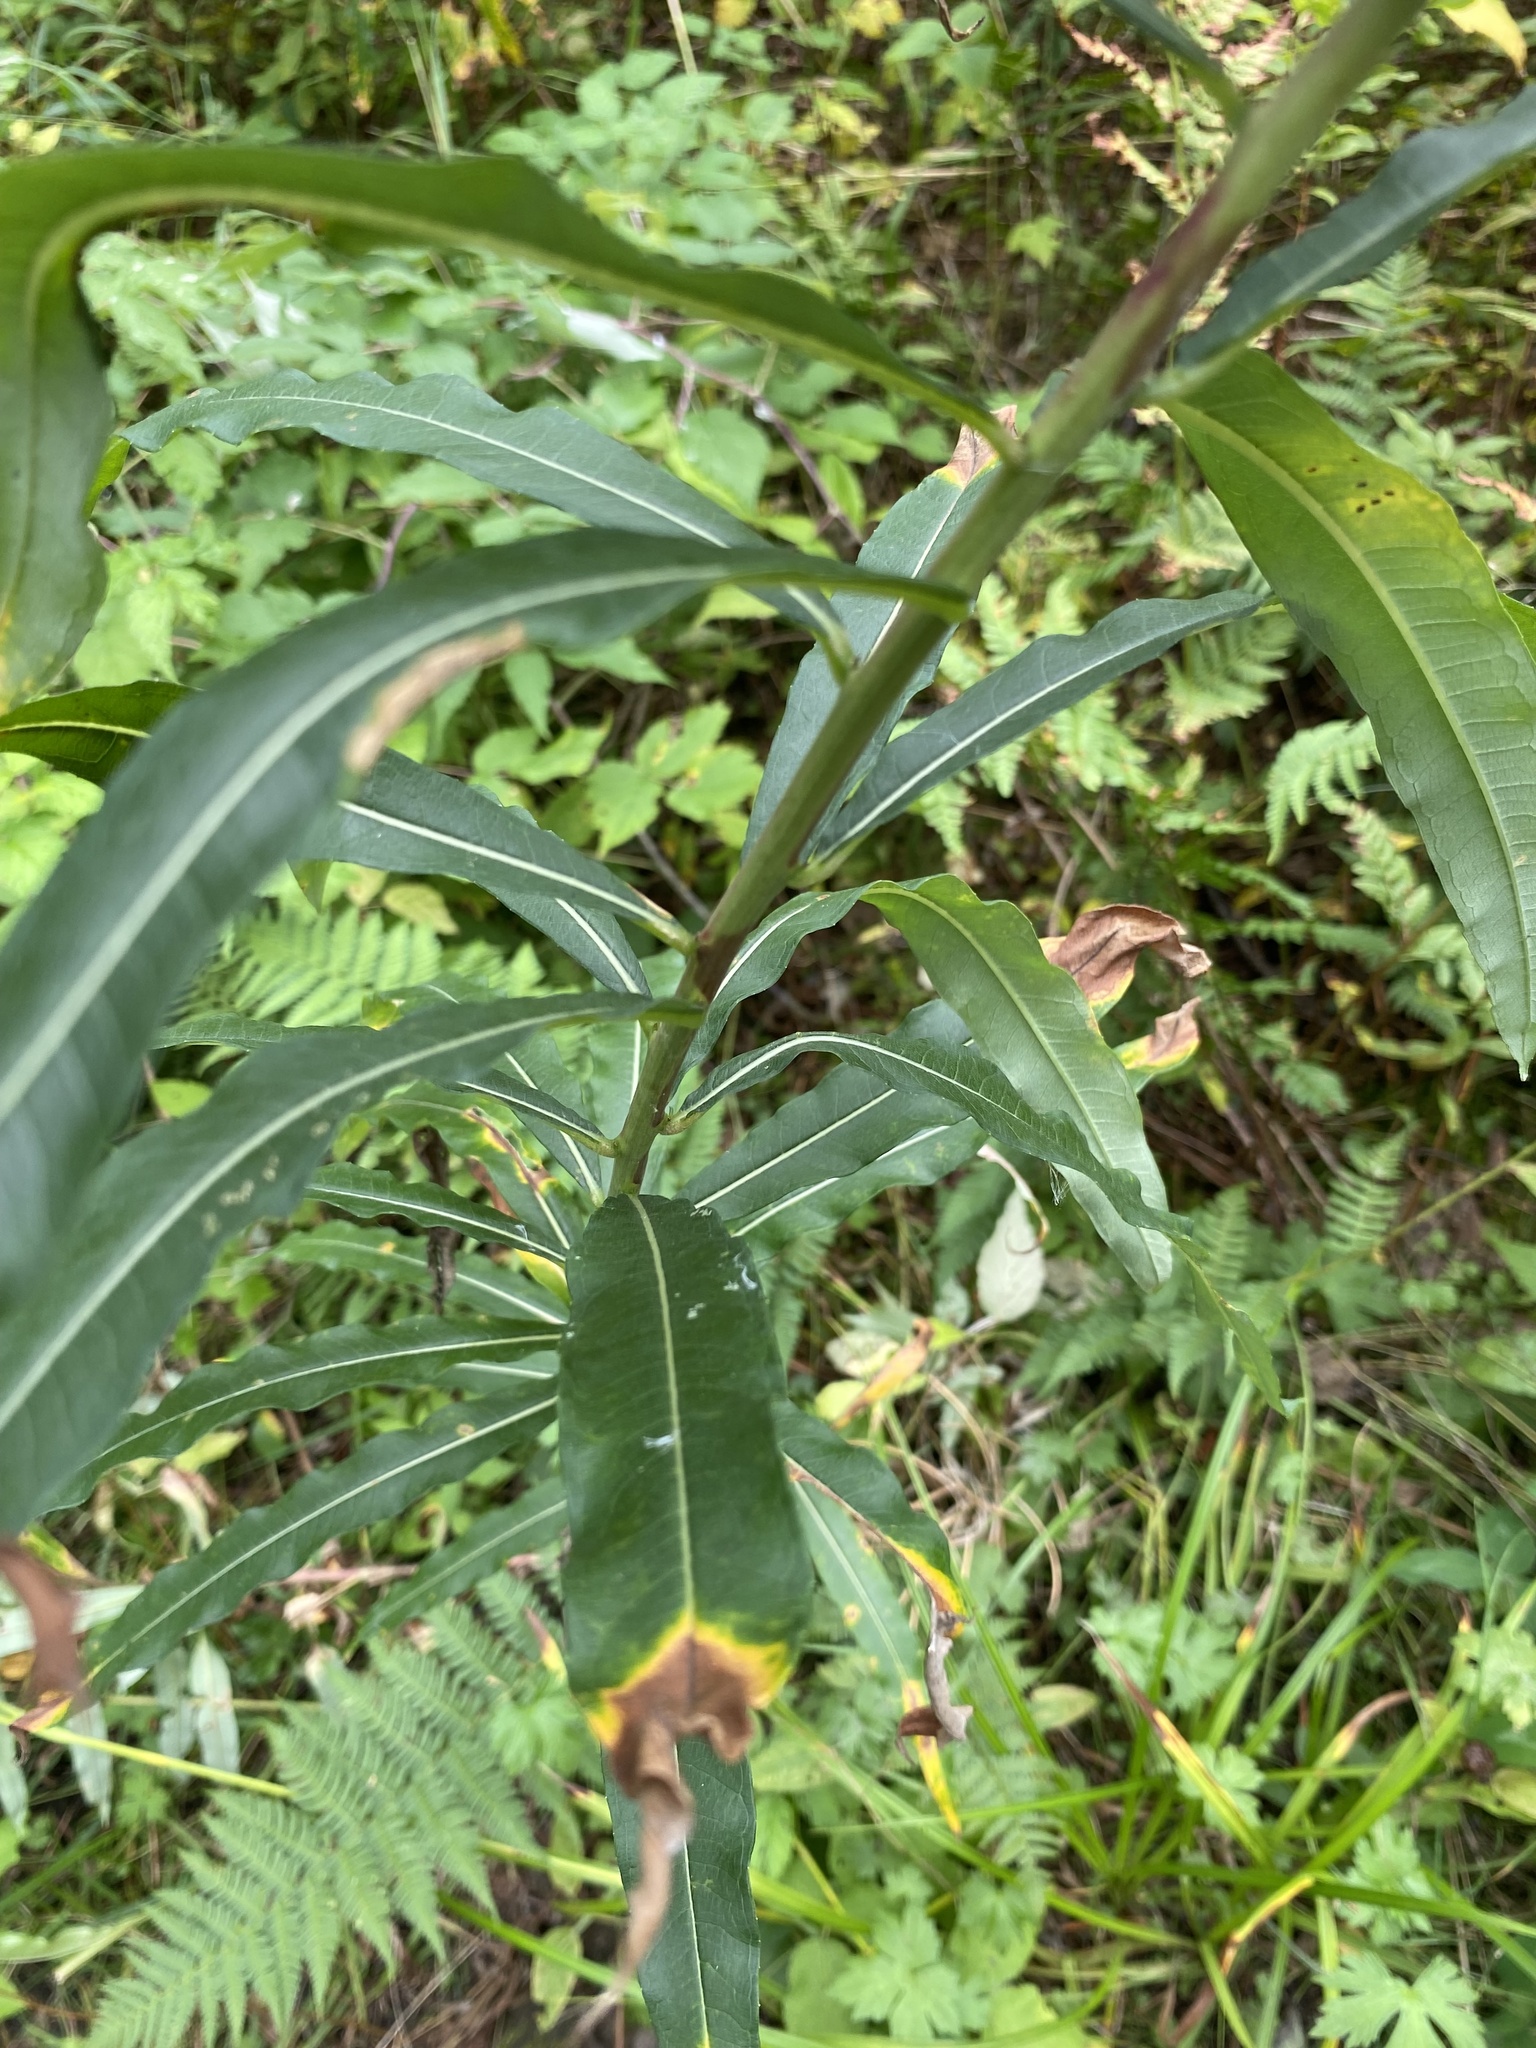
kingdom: Plantae
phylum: Tracheophyta
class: Magnoliopsida
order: Myrtales
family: Onagraceae
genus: Chamaenerion
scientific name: Chamaenerion angustifolium
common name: Fireweed
